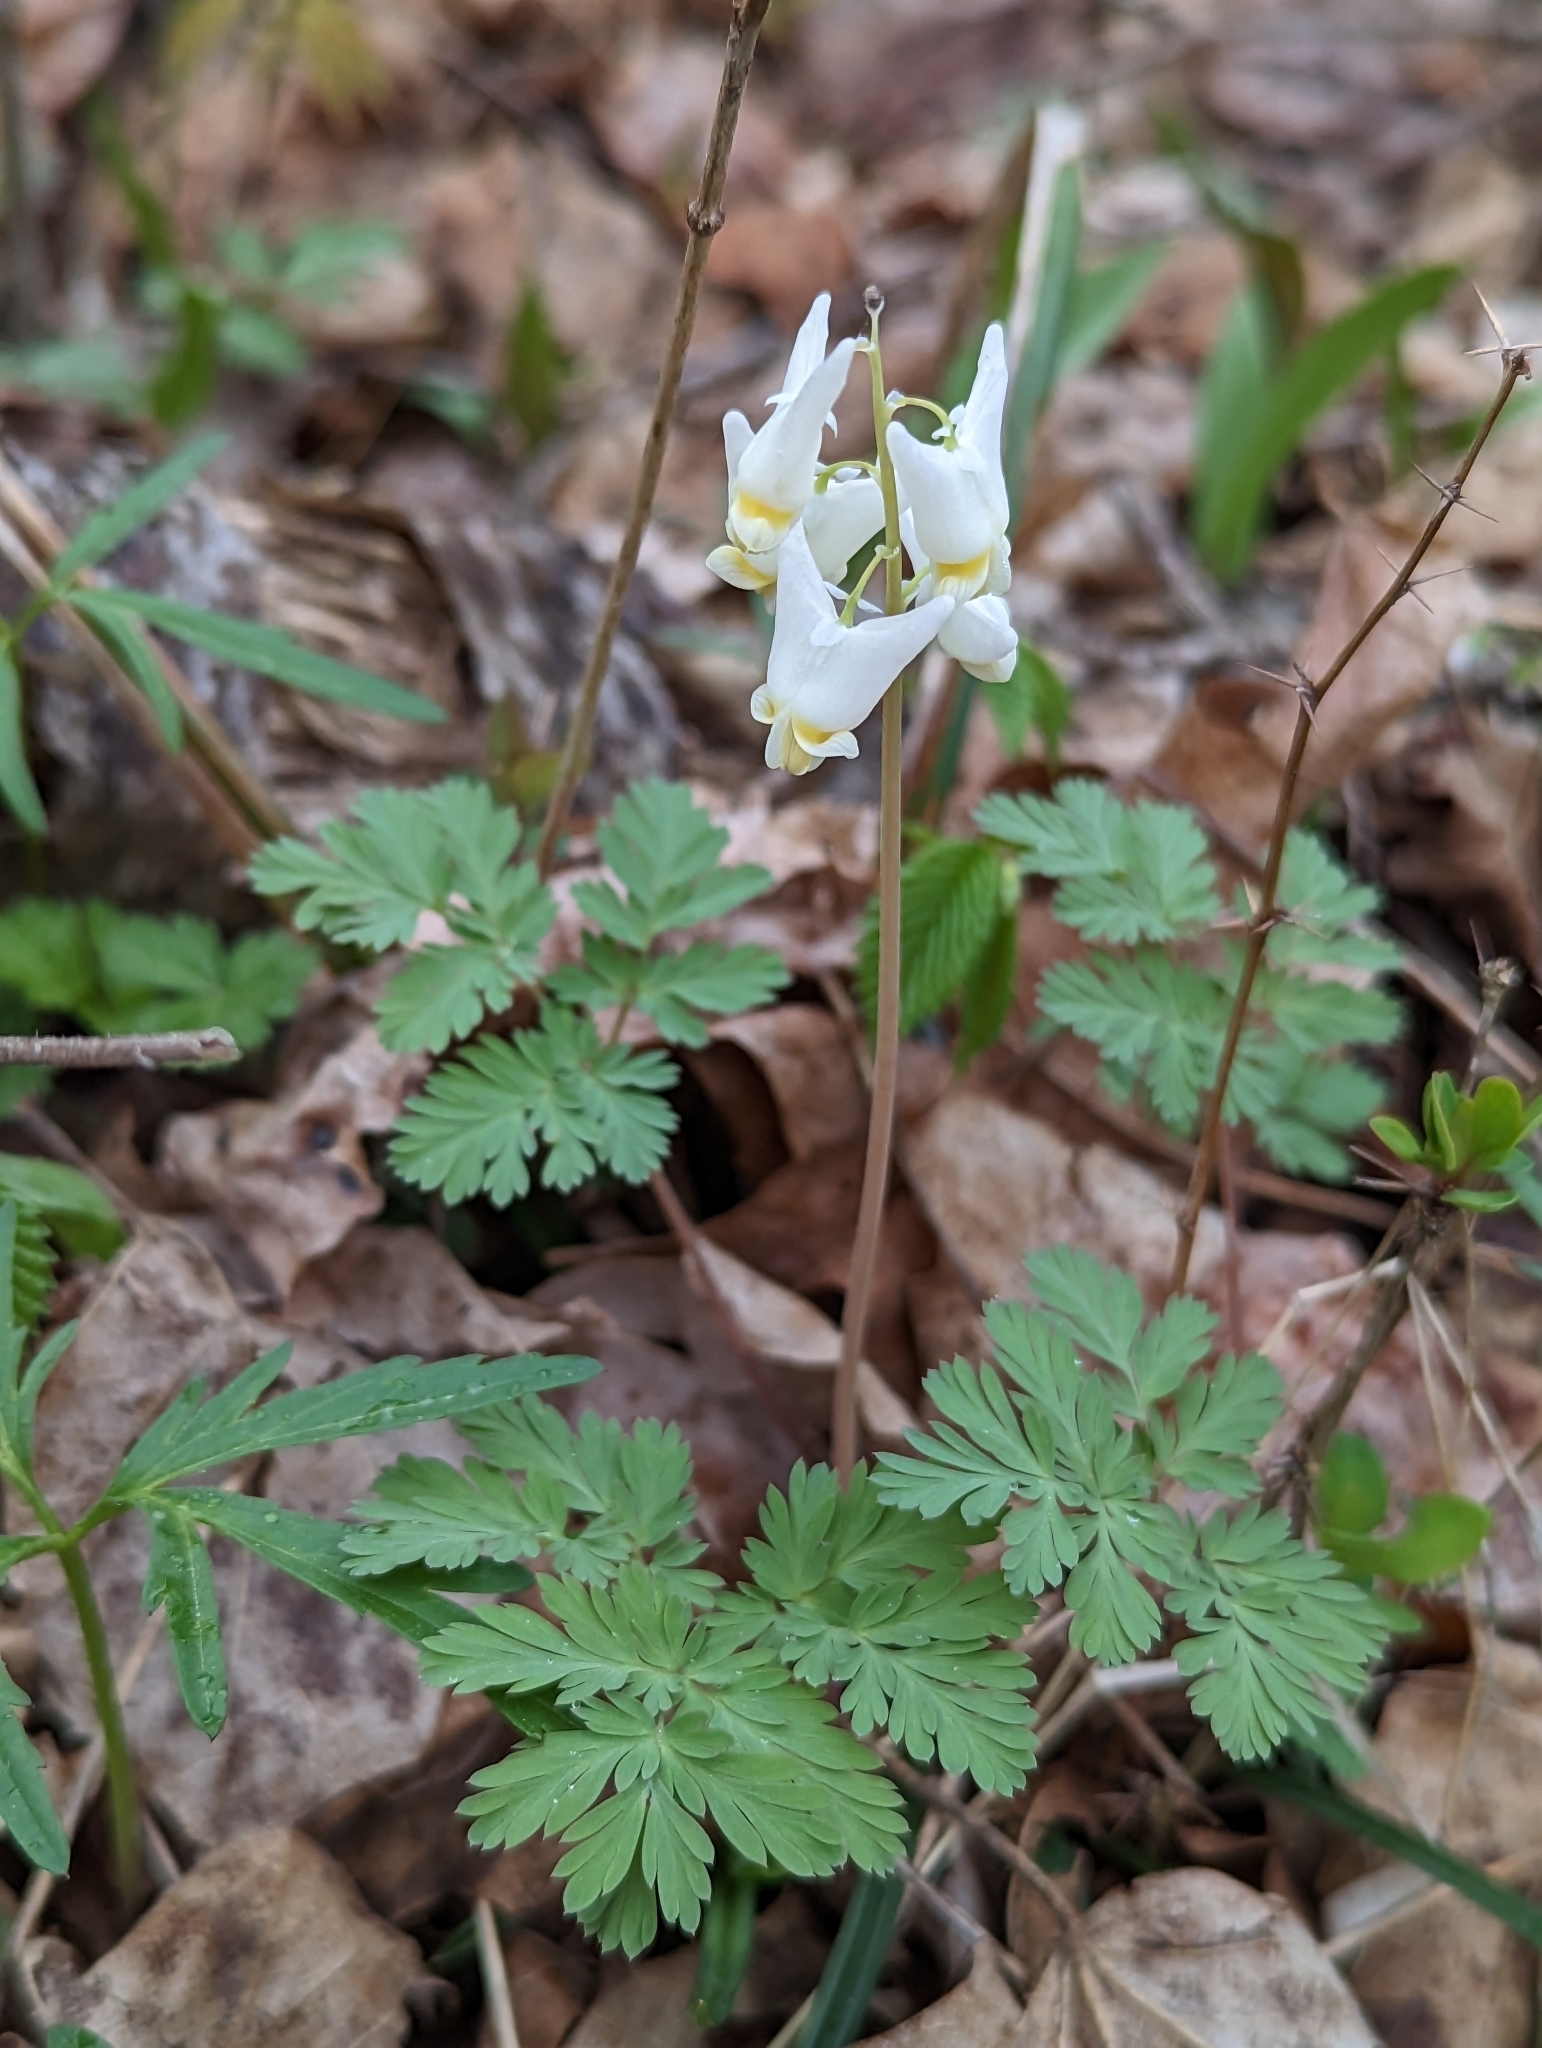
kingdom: Plantae
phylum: Tracheophyta
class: Magnoliopsida
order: Ranunculales
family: Papaveraceae
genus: Dicentra
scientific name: Dicentra cucullaria
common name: Dutchman's breeches
